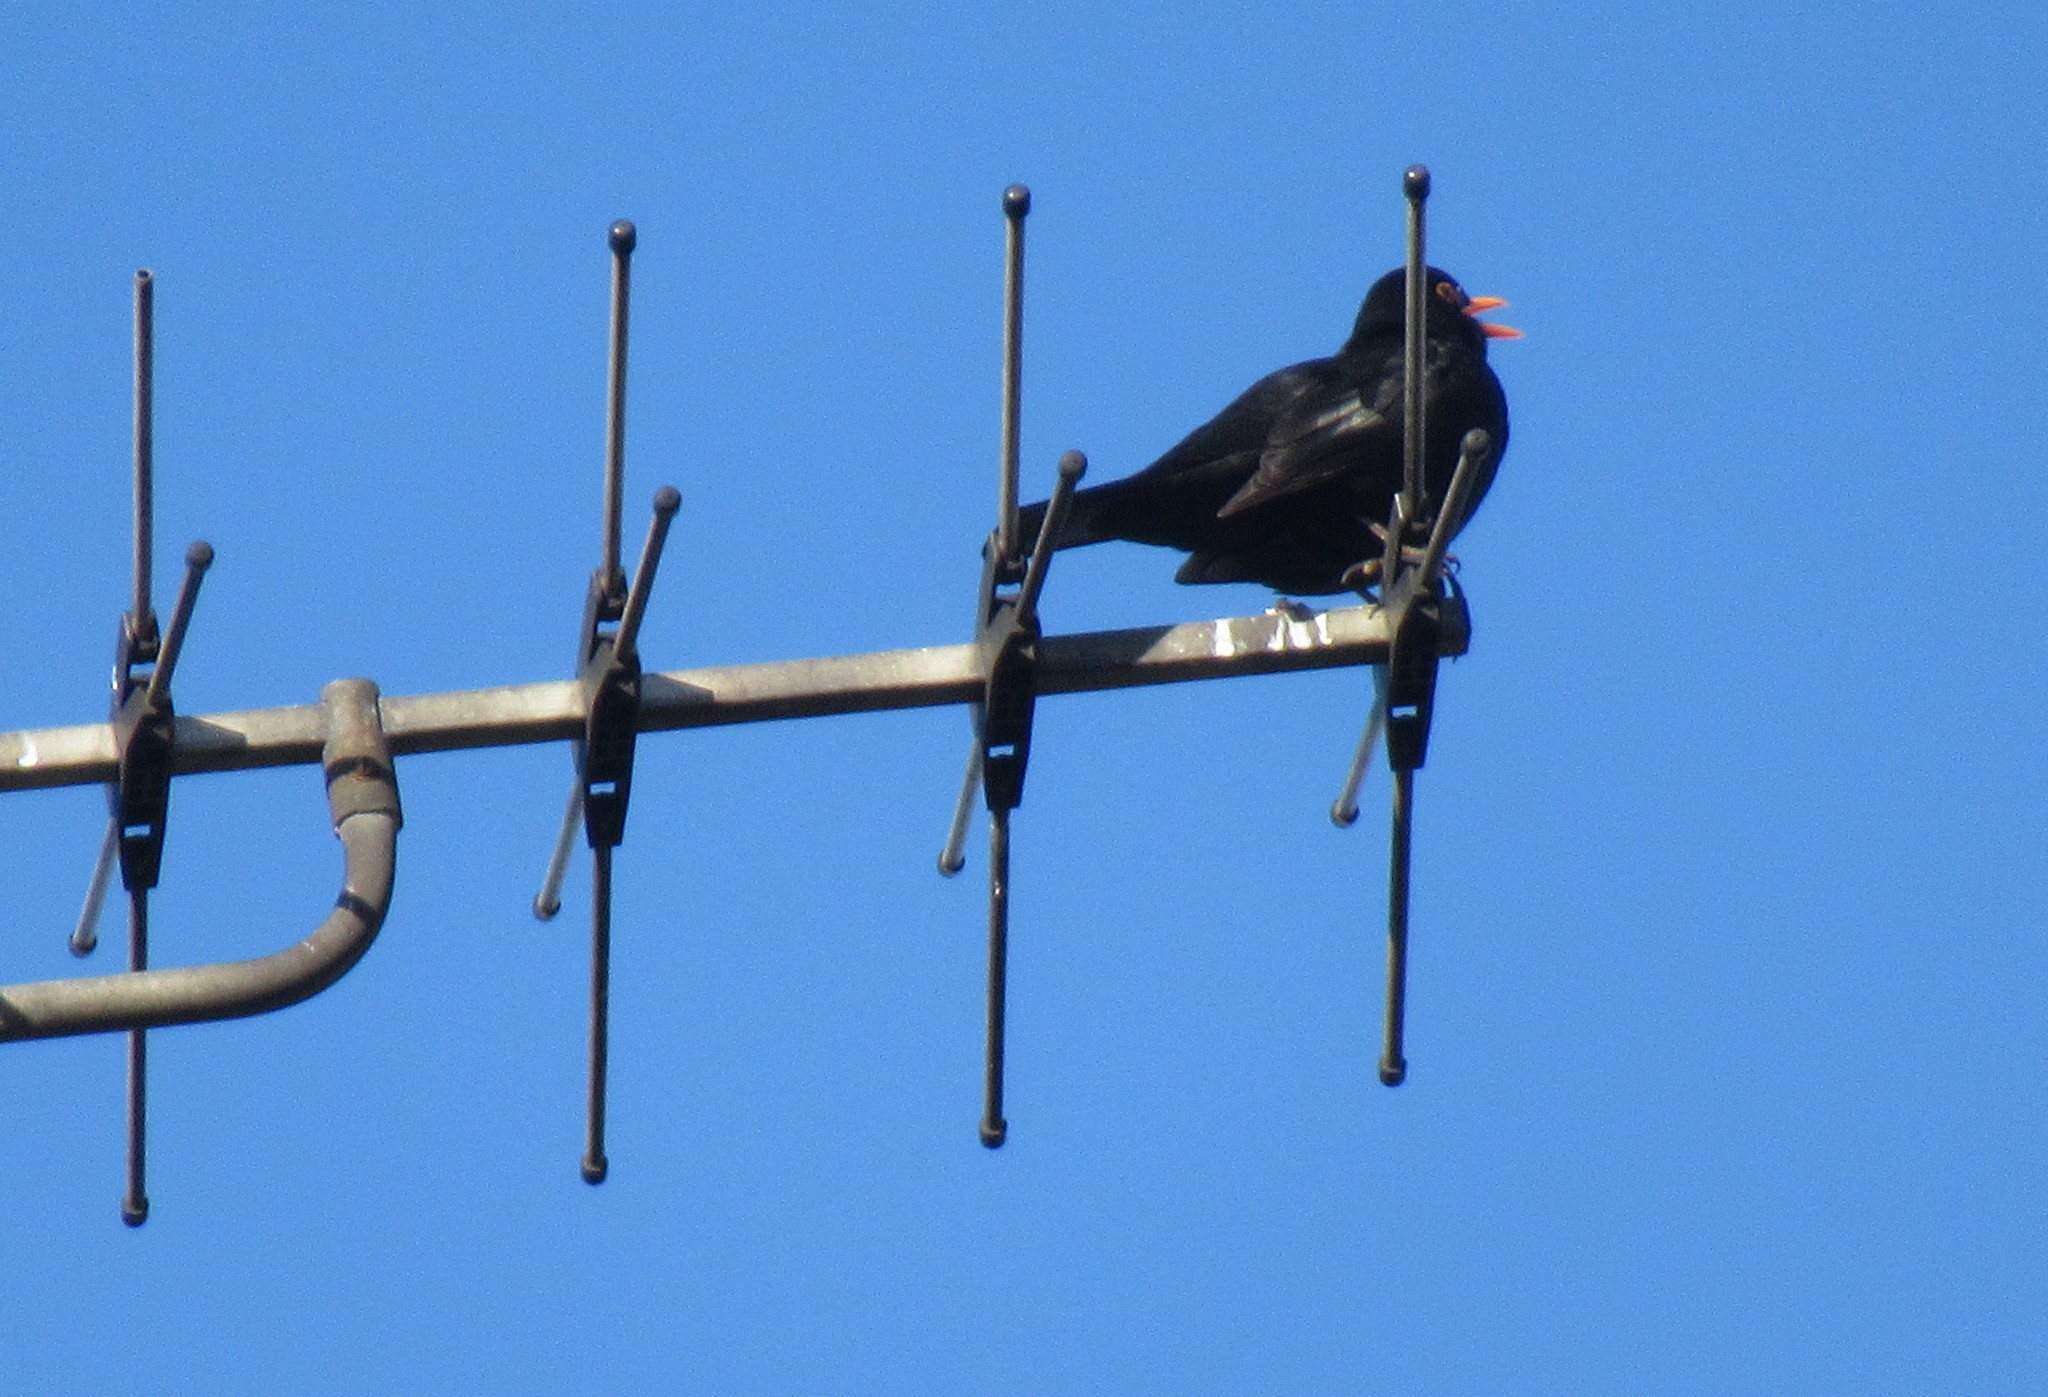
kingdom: Animalia
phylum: Chordata
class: Aves
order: Passeriformes
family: Turdidae
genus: Turdus
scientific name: Turdus merula
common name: Common blackbird
